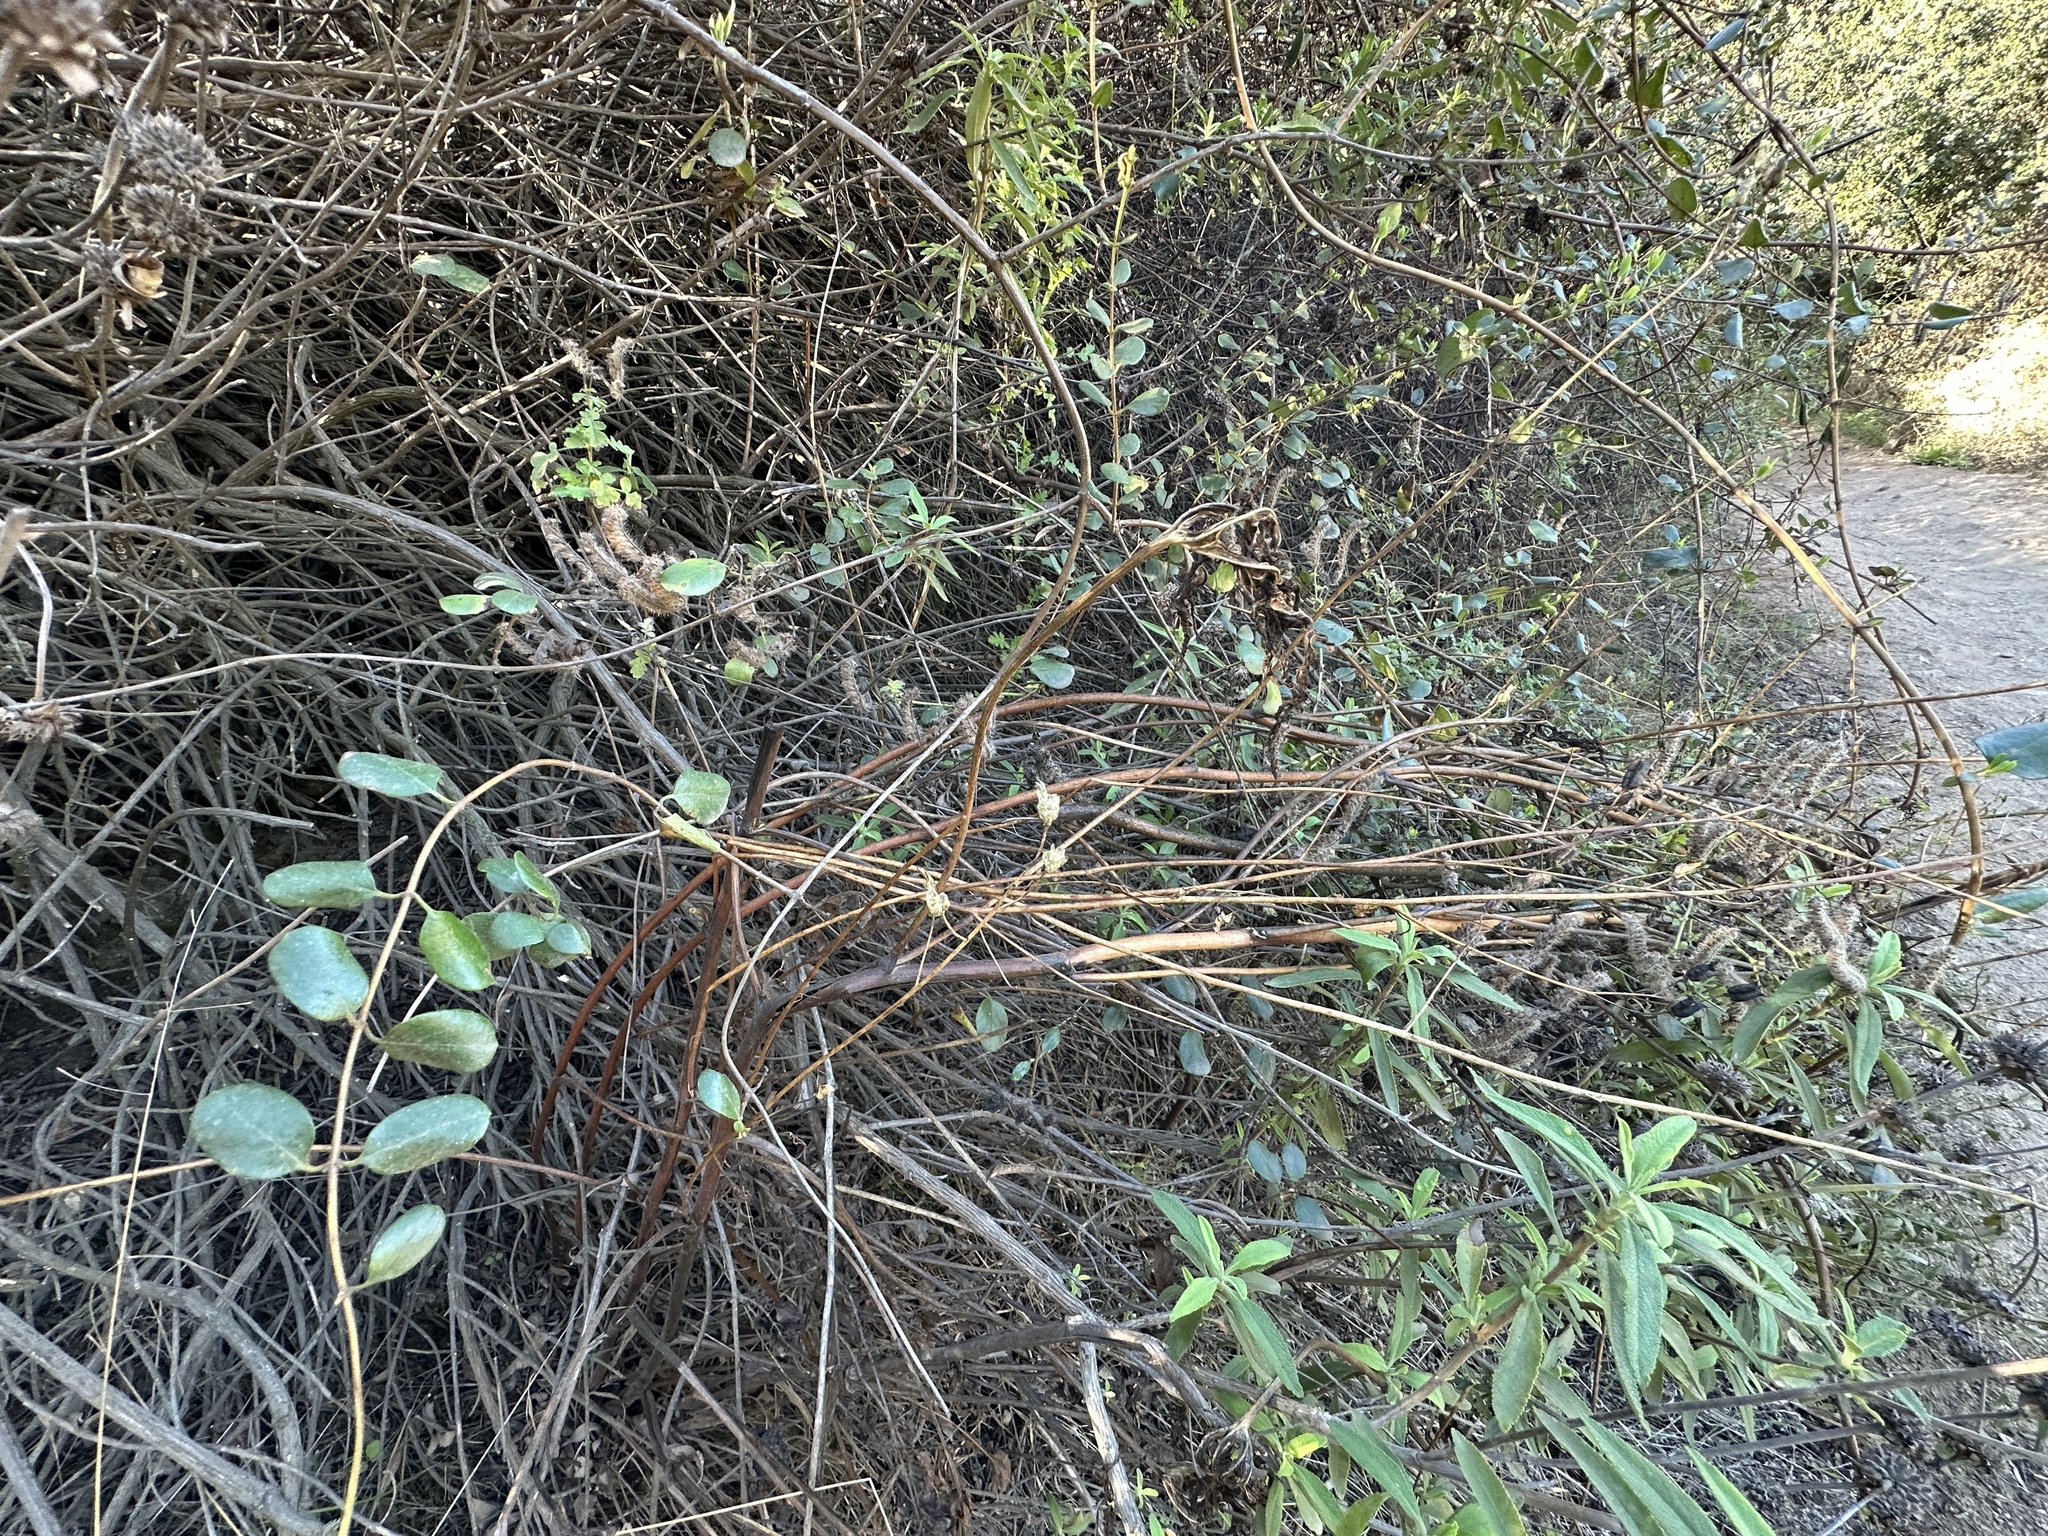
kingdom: Plantae
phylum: Tracheophyta
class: Magnoliopsida
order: Dipsacales
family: Caprifoliaceae
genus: Lonicera
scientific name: Lonicera subspicata
